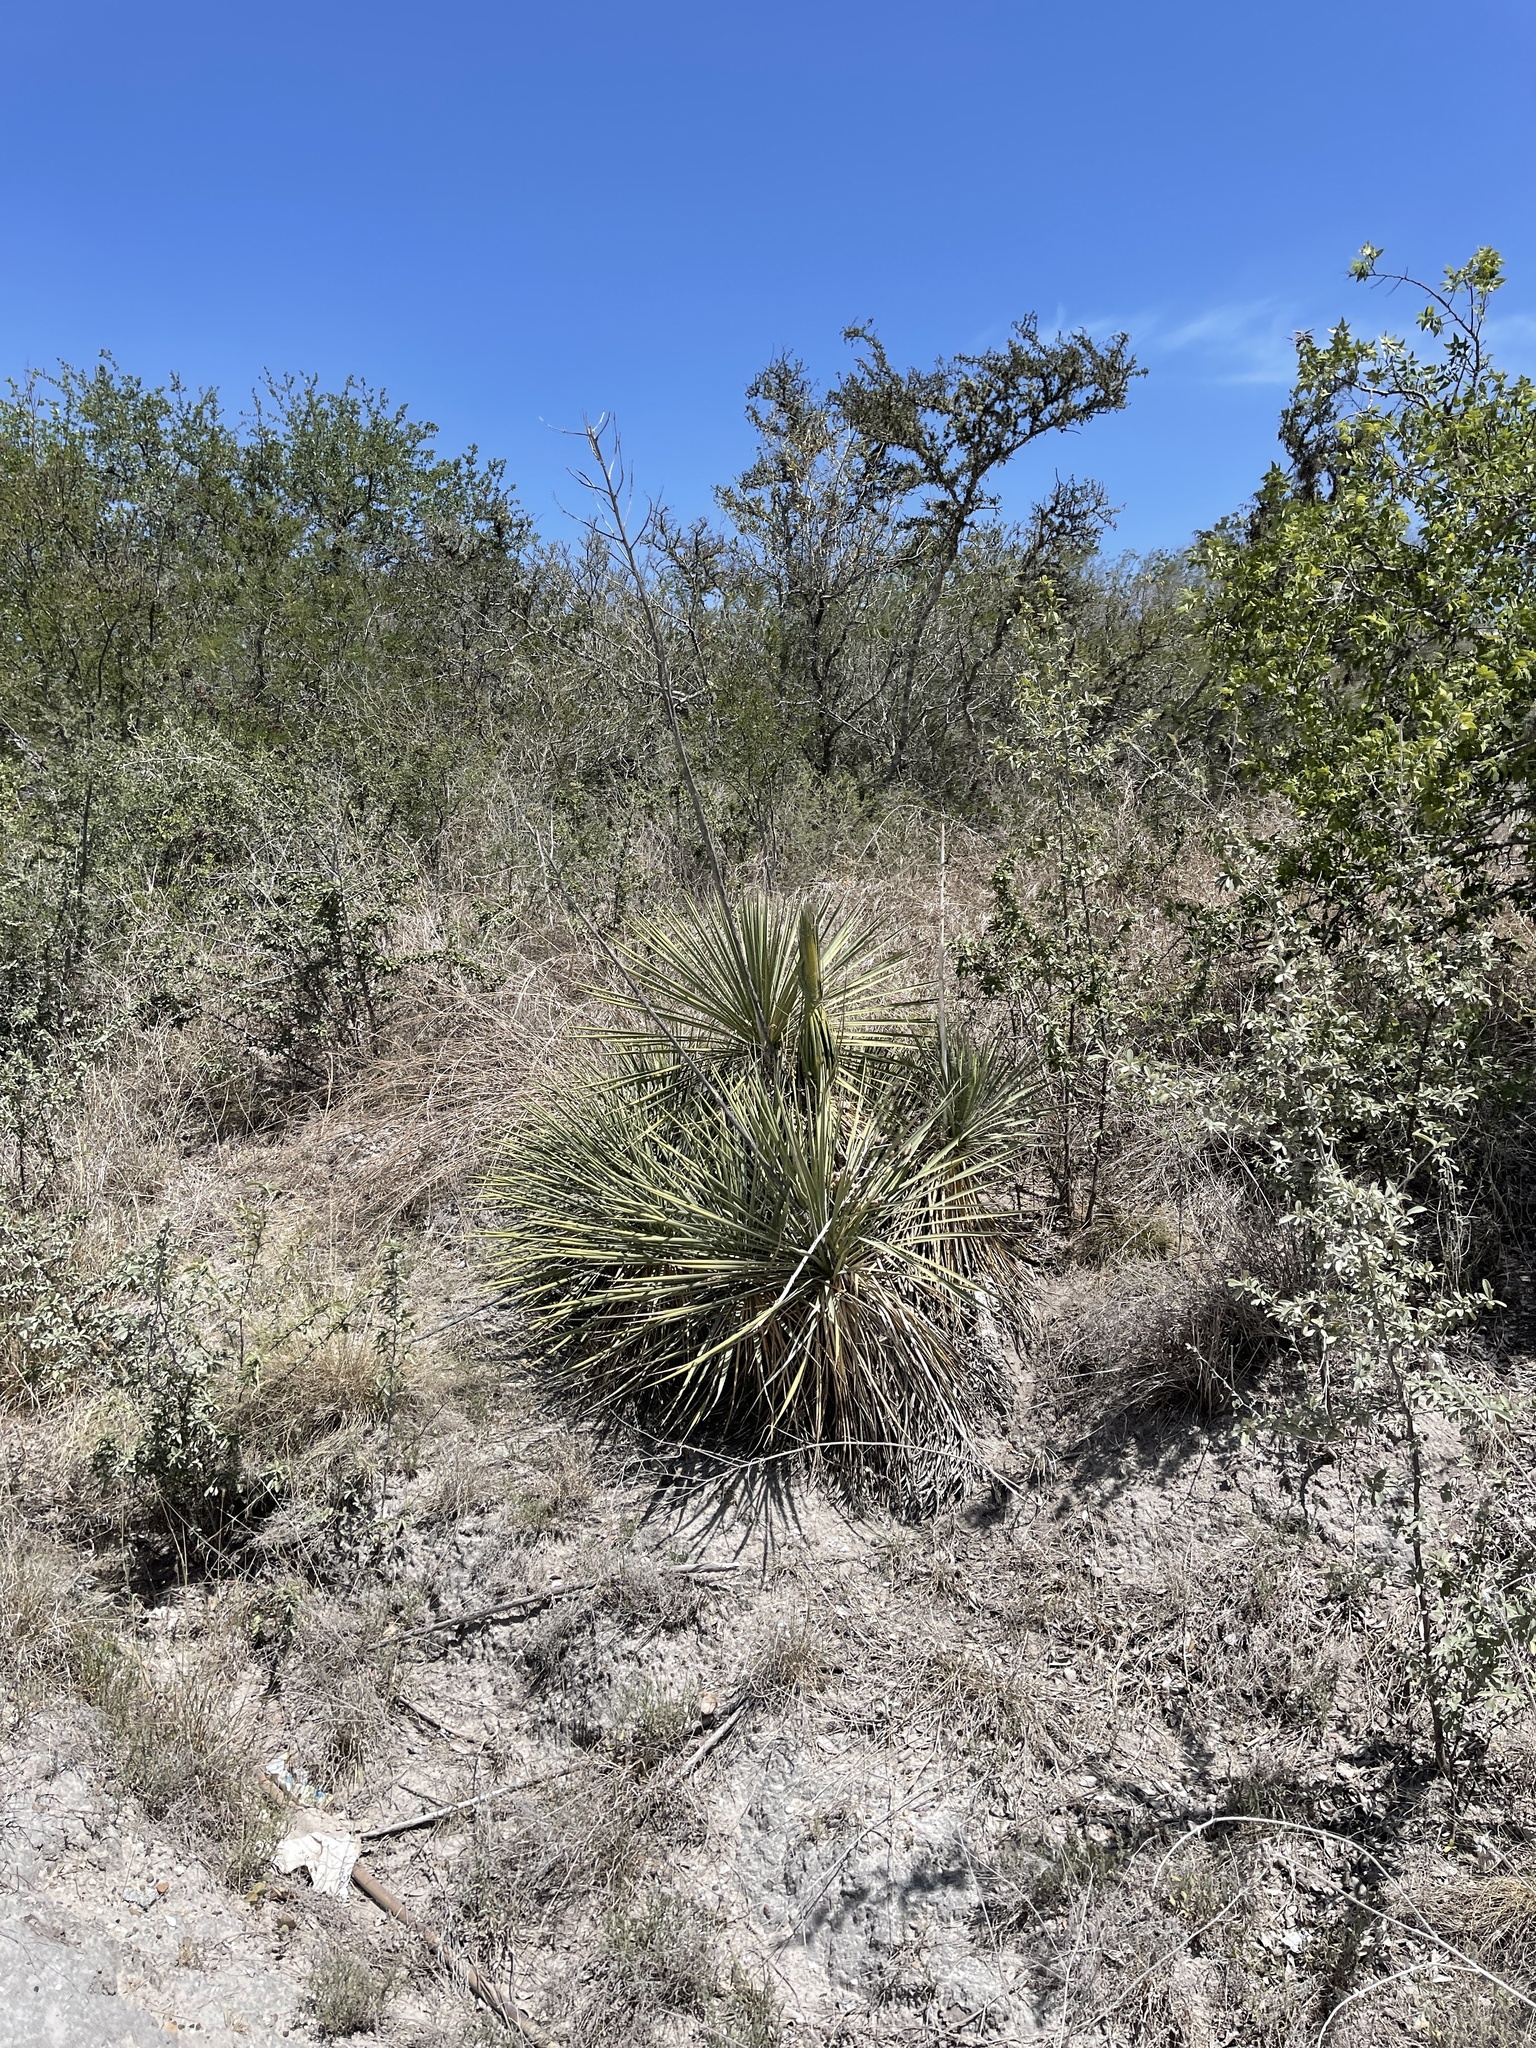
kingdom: Plantae
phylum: Tracheophyta
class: Liliopsida
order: Asparagales
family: Asparagaceae
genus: Yucca
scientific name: Yucca treculiana
